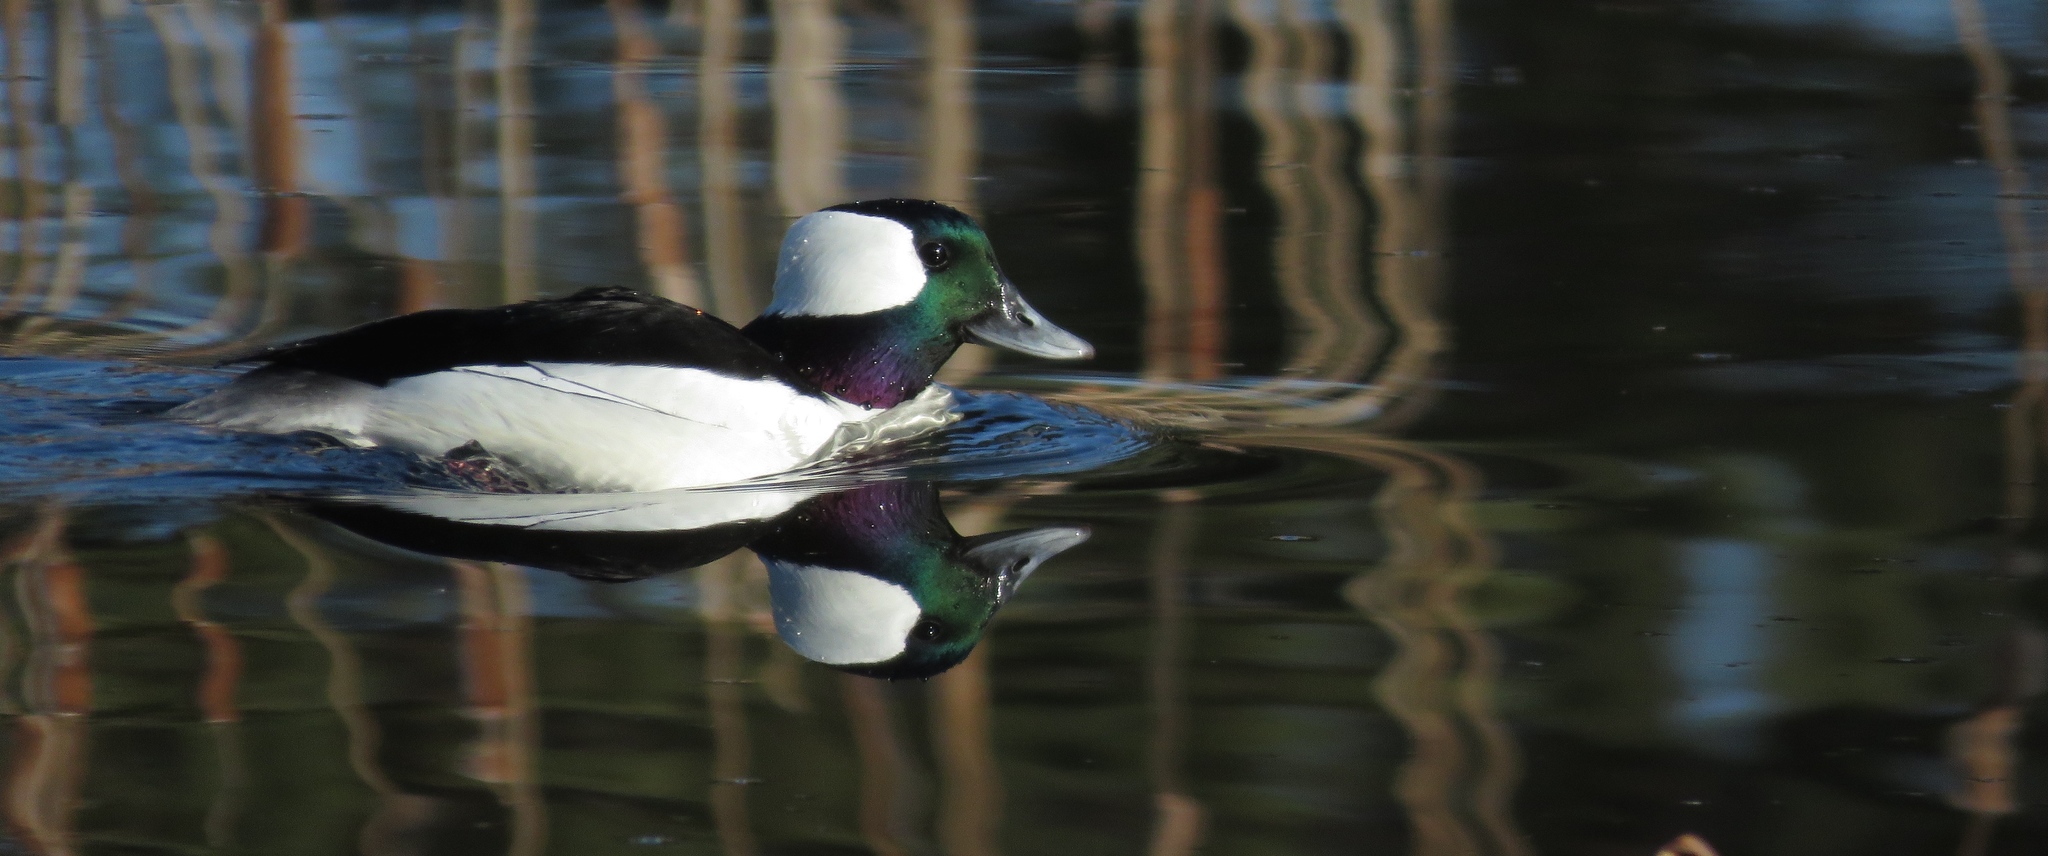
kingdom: Animalia
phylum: Chordata
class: Aves
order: Anseriformes
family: Anatidae
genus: Bucephala
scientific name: Bucephala albeola
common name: Bufflehead
